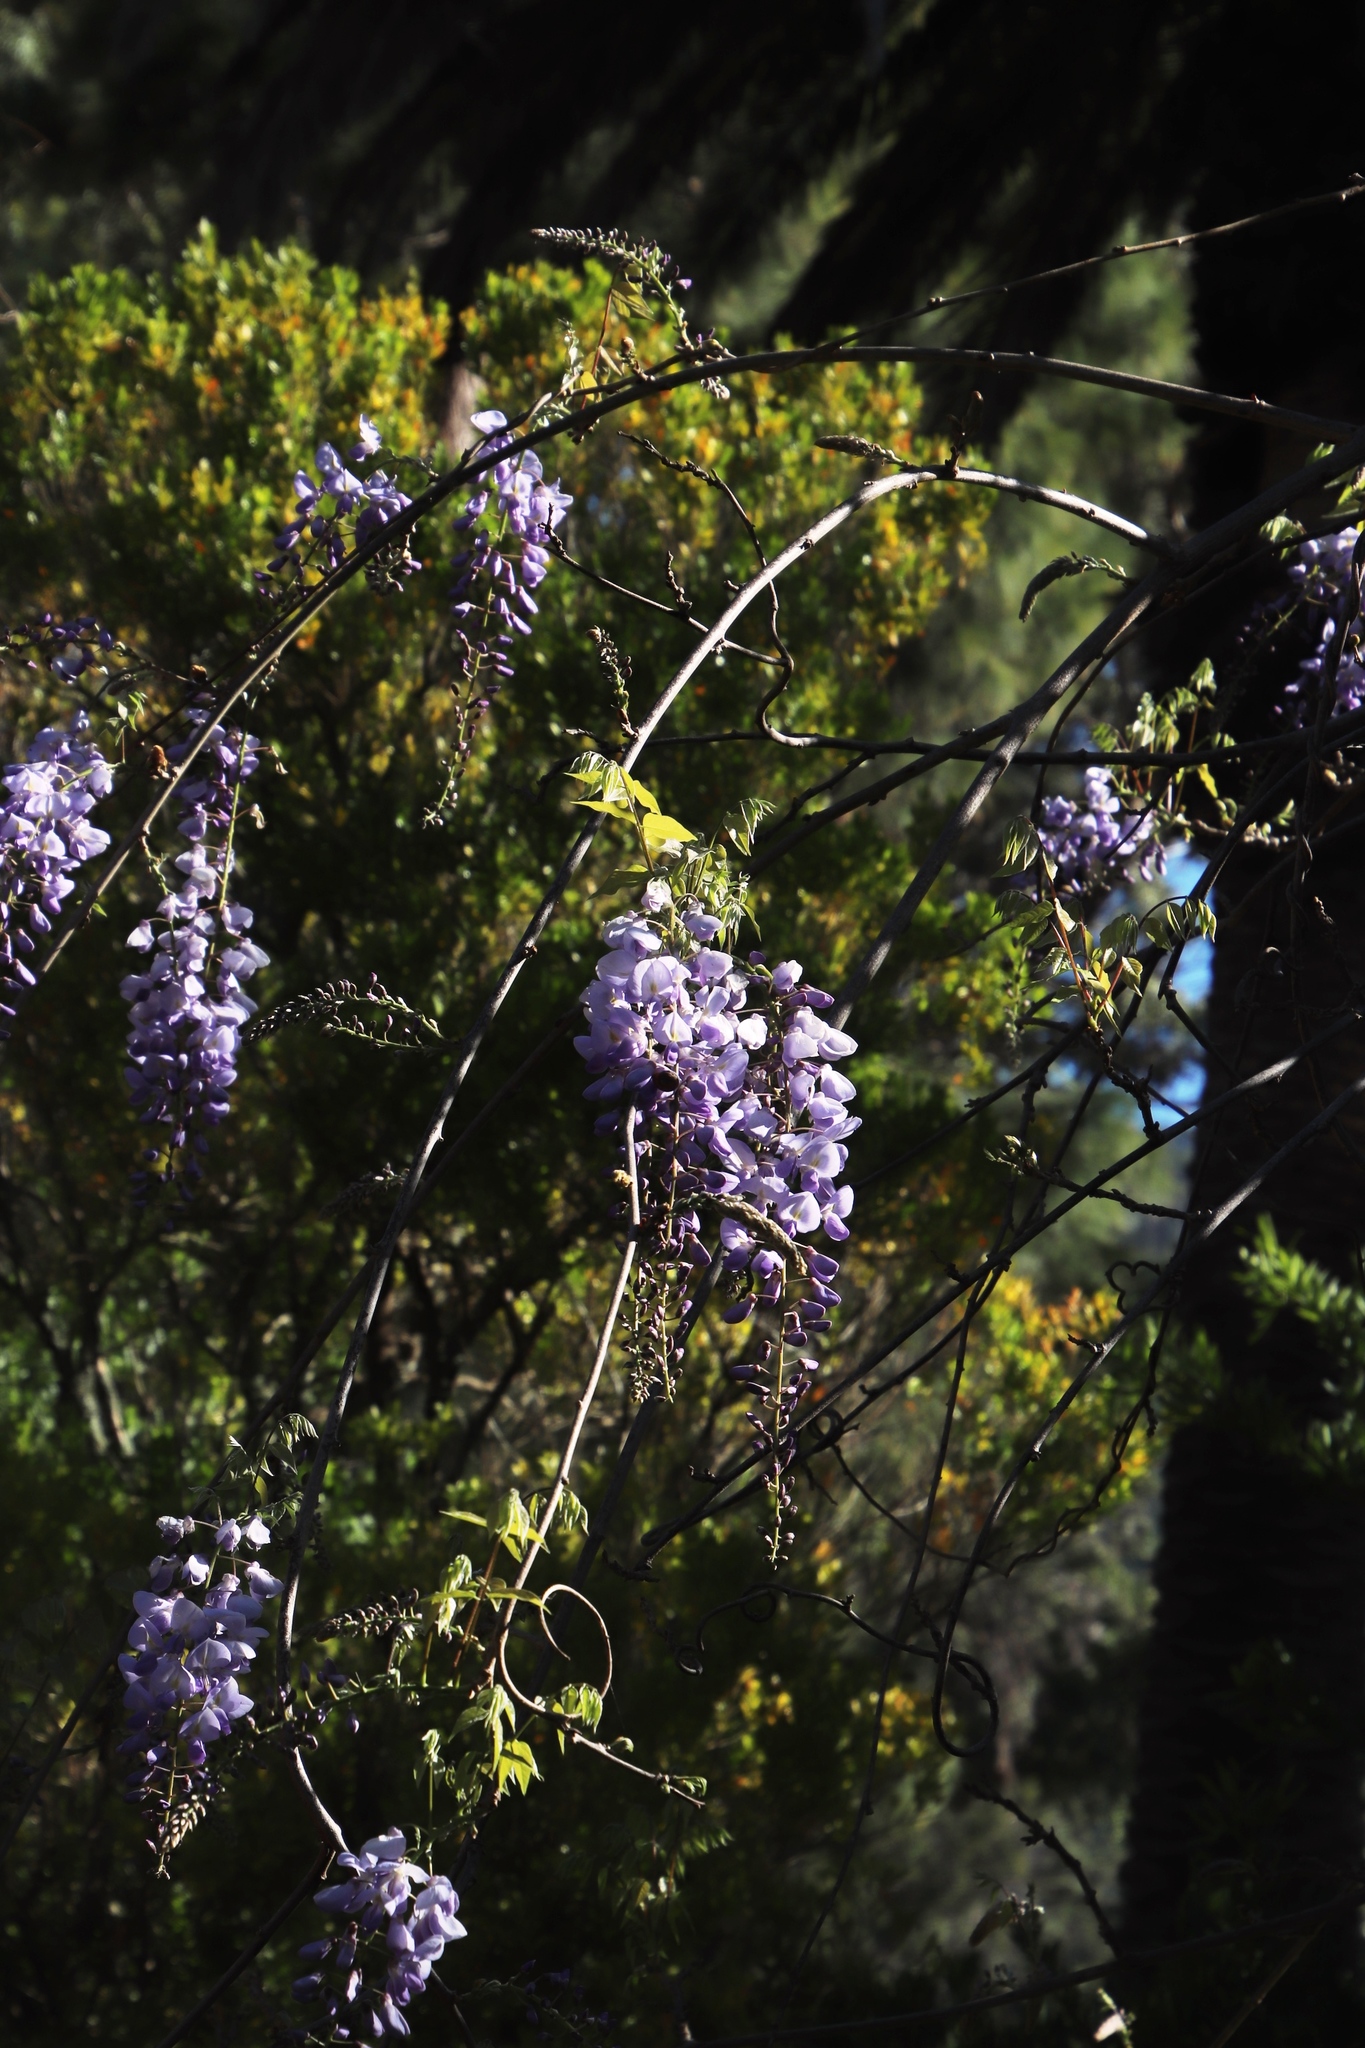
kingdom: Plantae
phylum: Tracheophyta
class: Magnoliopsida
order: Fabales
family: Fabaceae
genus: Wisteria
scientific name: Wisteria sinensis
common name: Chinese wisteria
